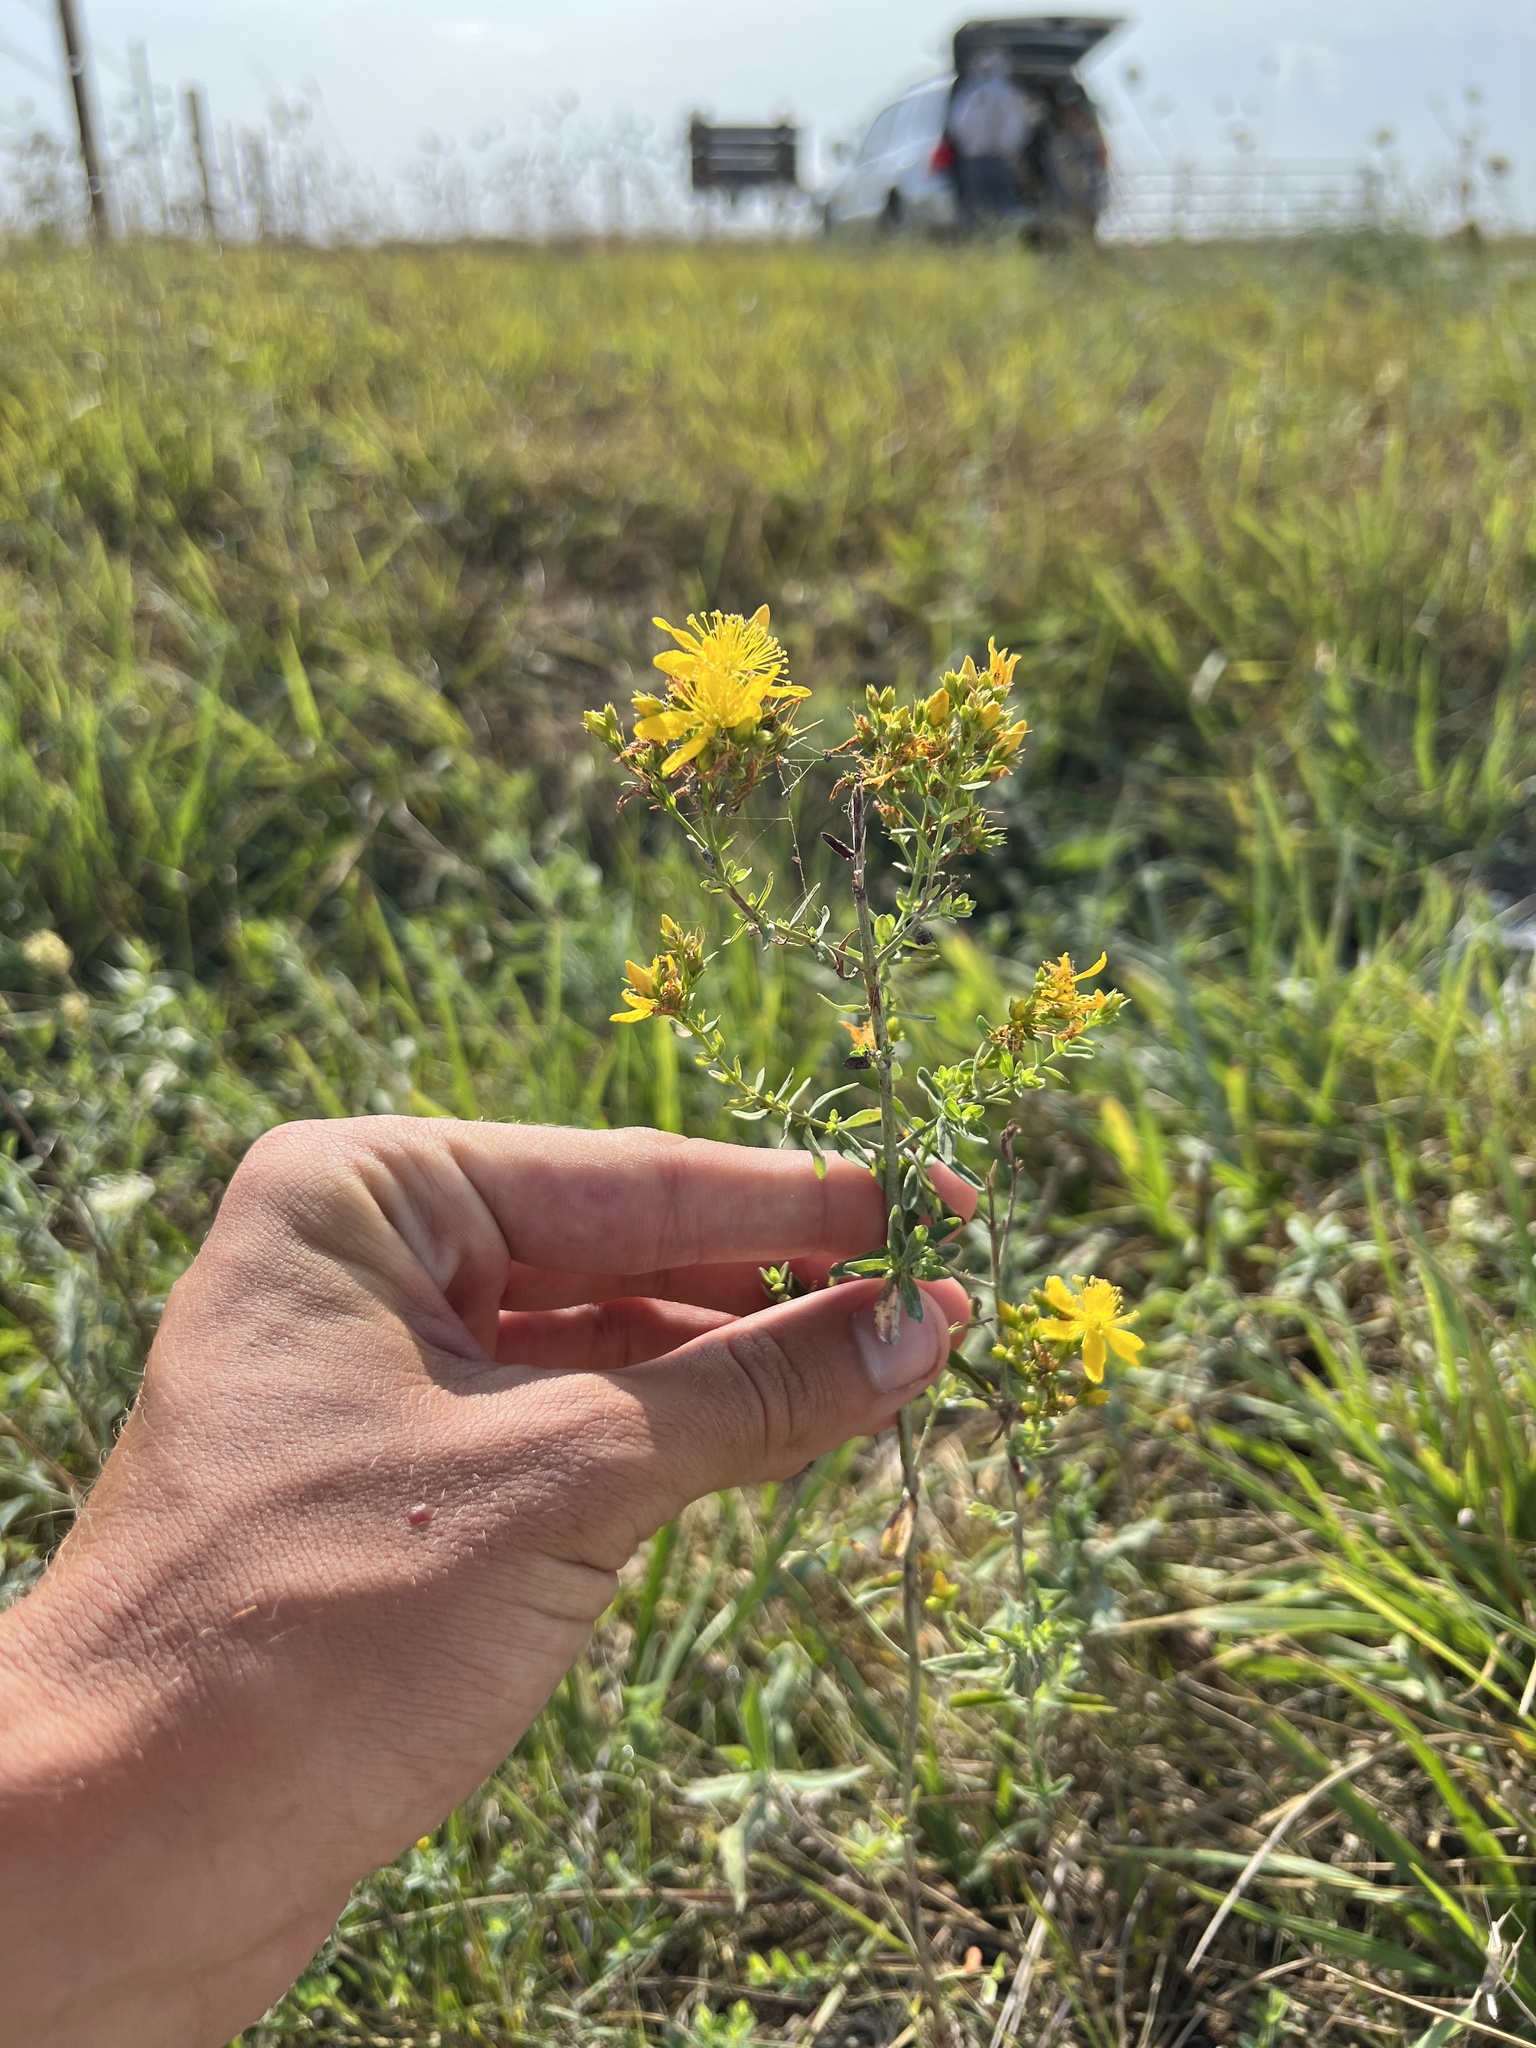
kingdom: Plantae
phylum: Tracheophyta
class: Magnoliopsida
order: Malpighiales
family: Hypericaceae
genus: Hypericum
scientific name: Hypericum perforatum
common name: Common st. johnswort
